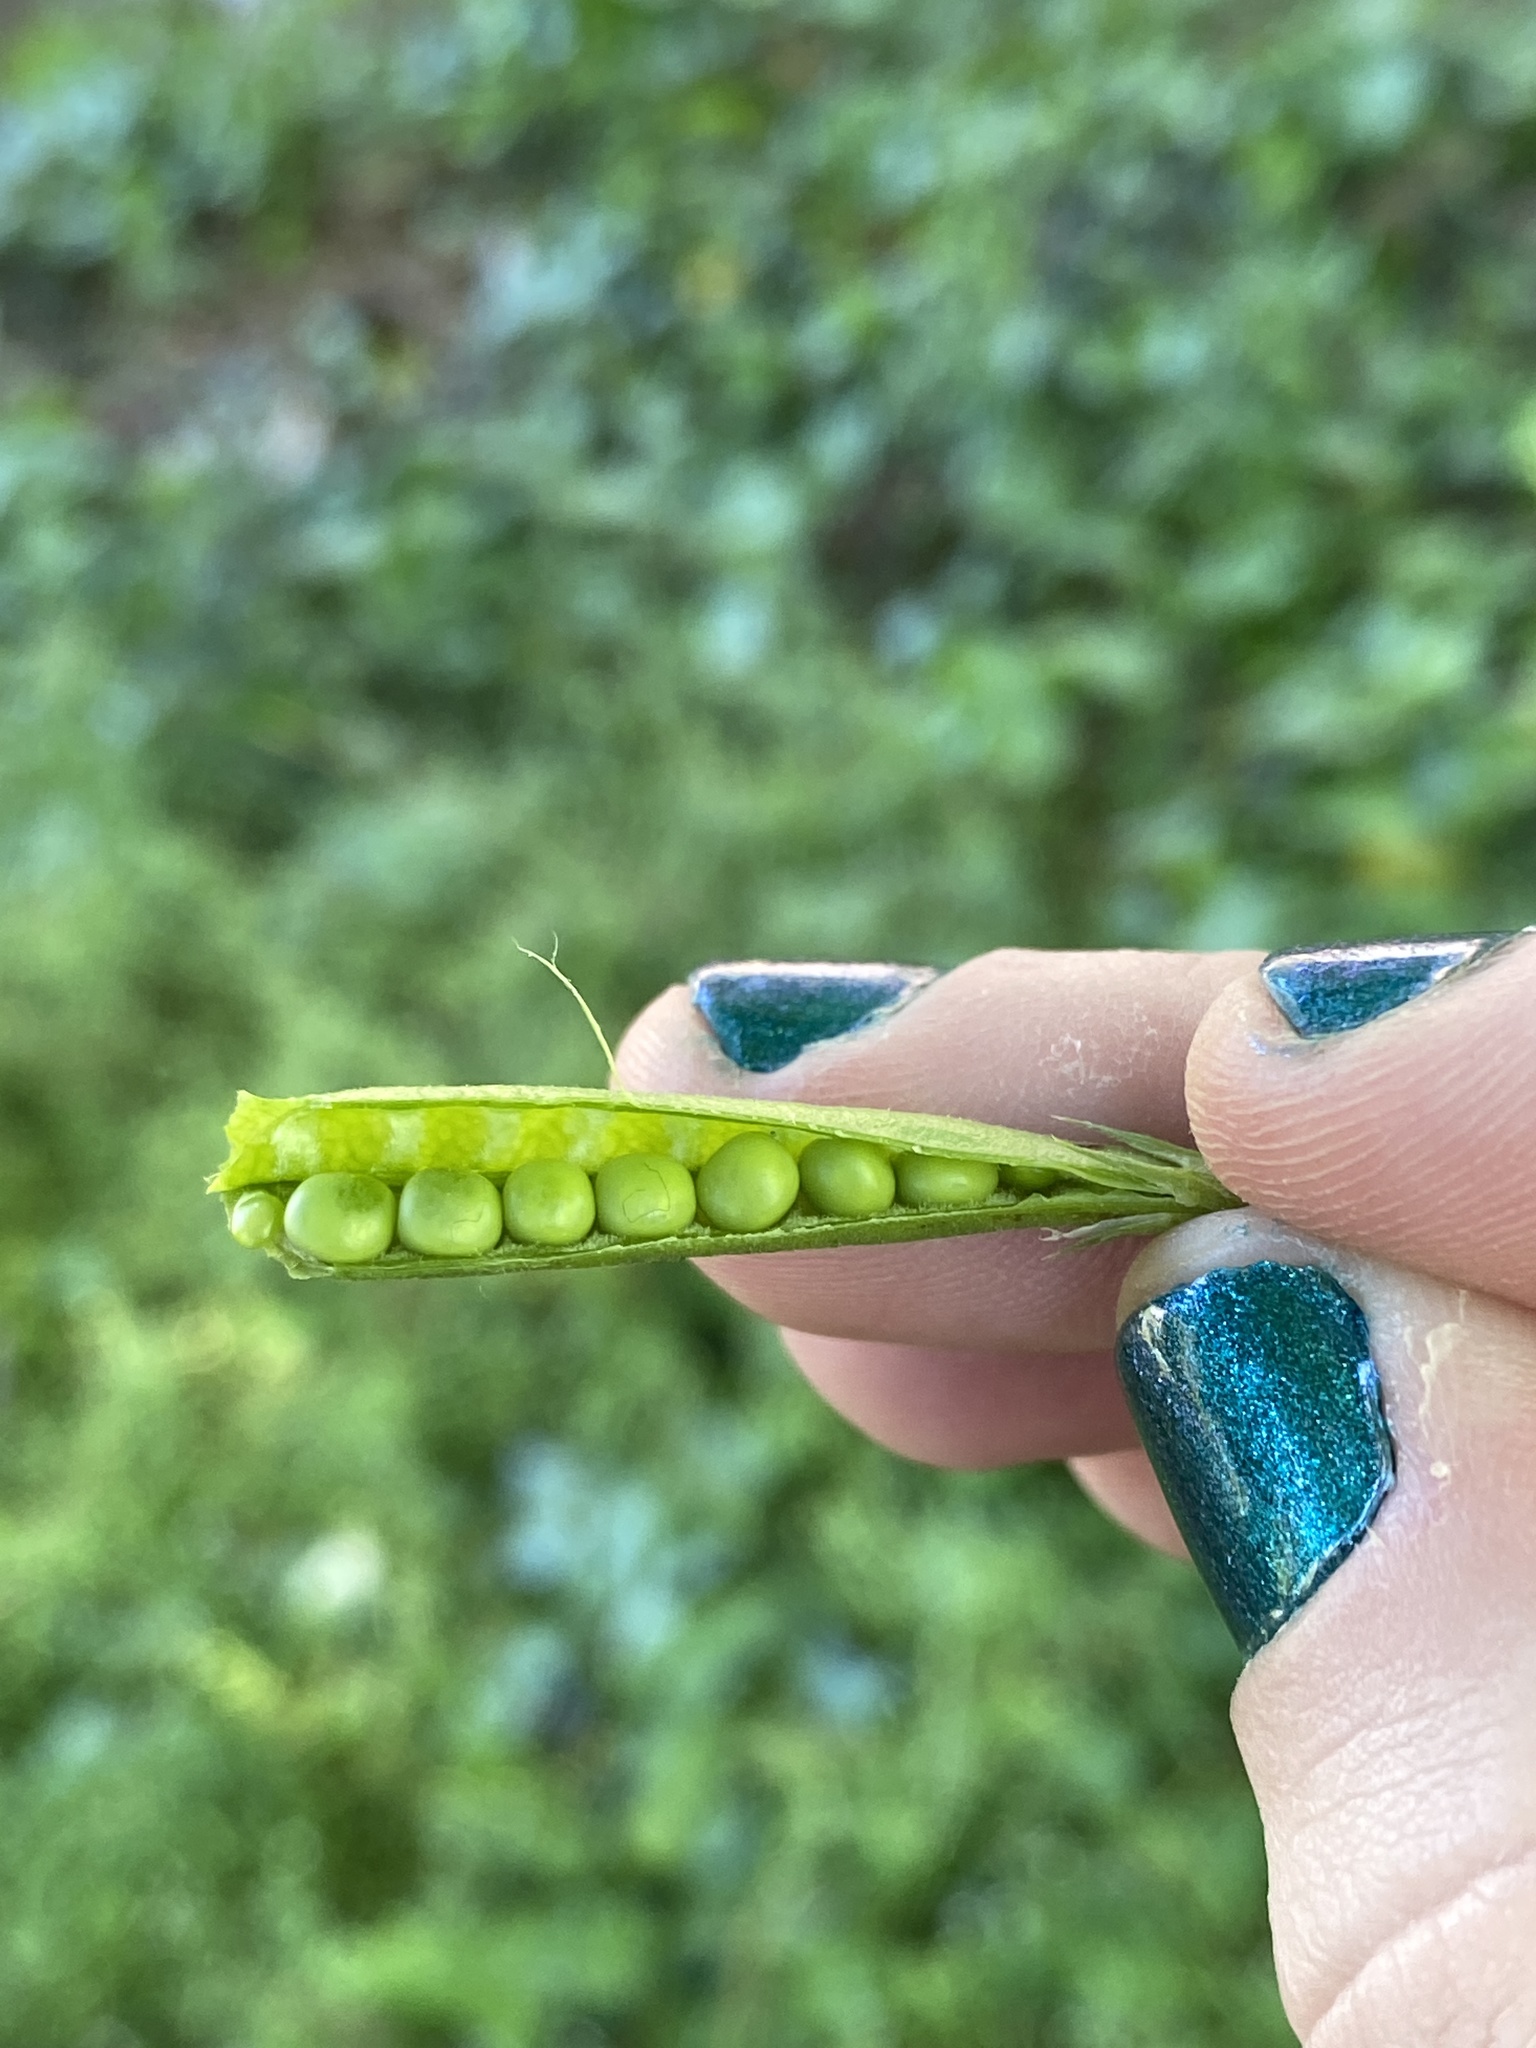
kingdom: Plantae
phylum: Tracheophyta
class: Magnoliopsida
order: Fabales
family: Fabaceae
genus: Vicia
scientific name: Vicia sativa
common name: Garden vetch
